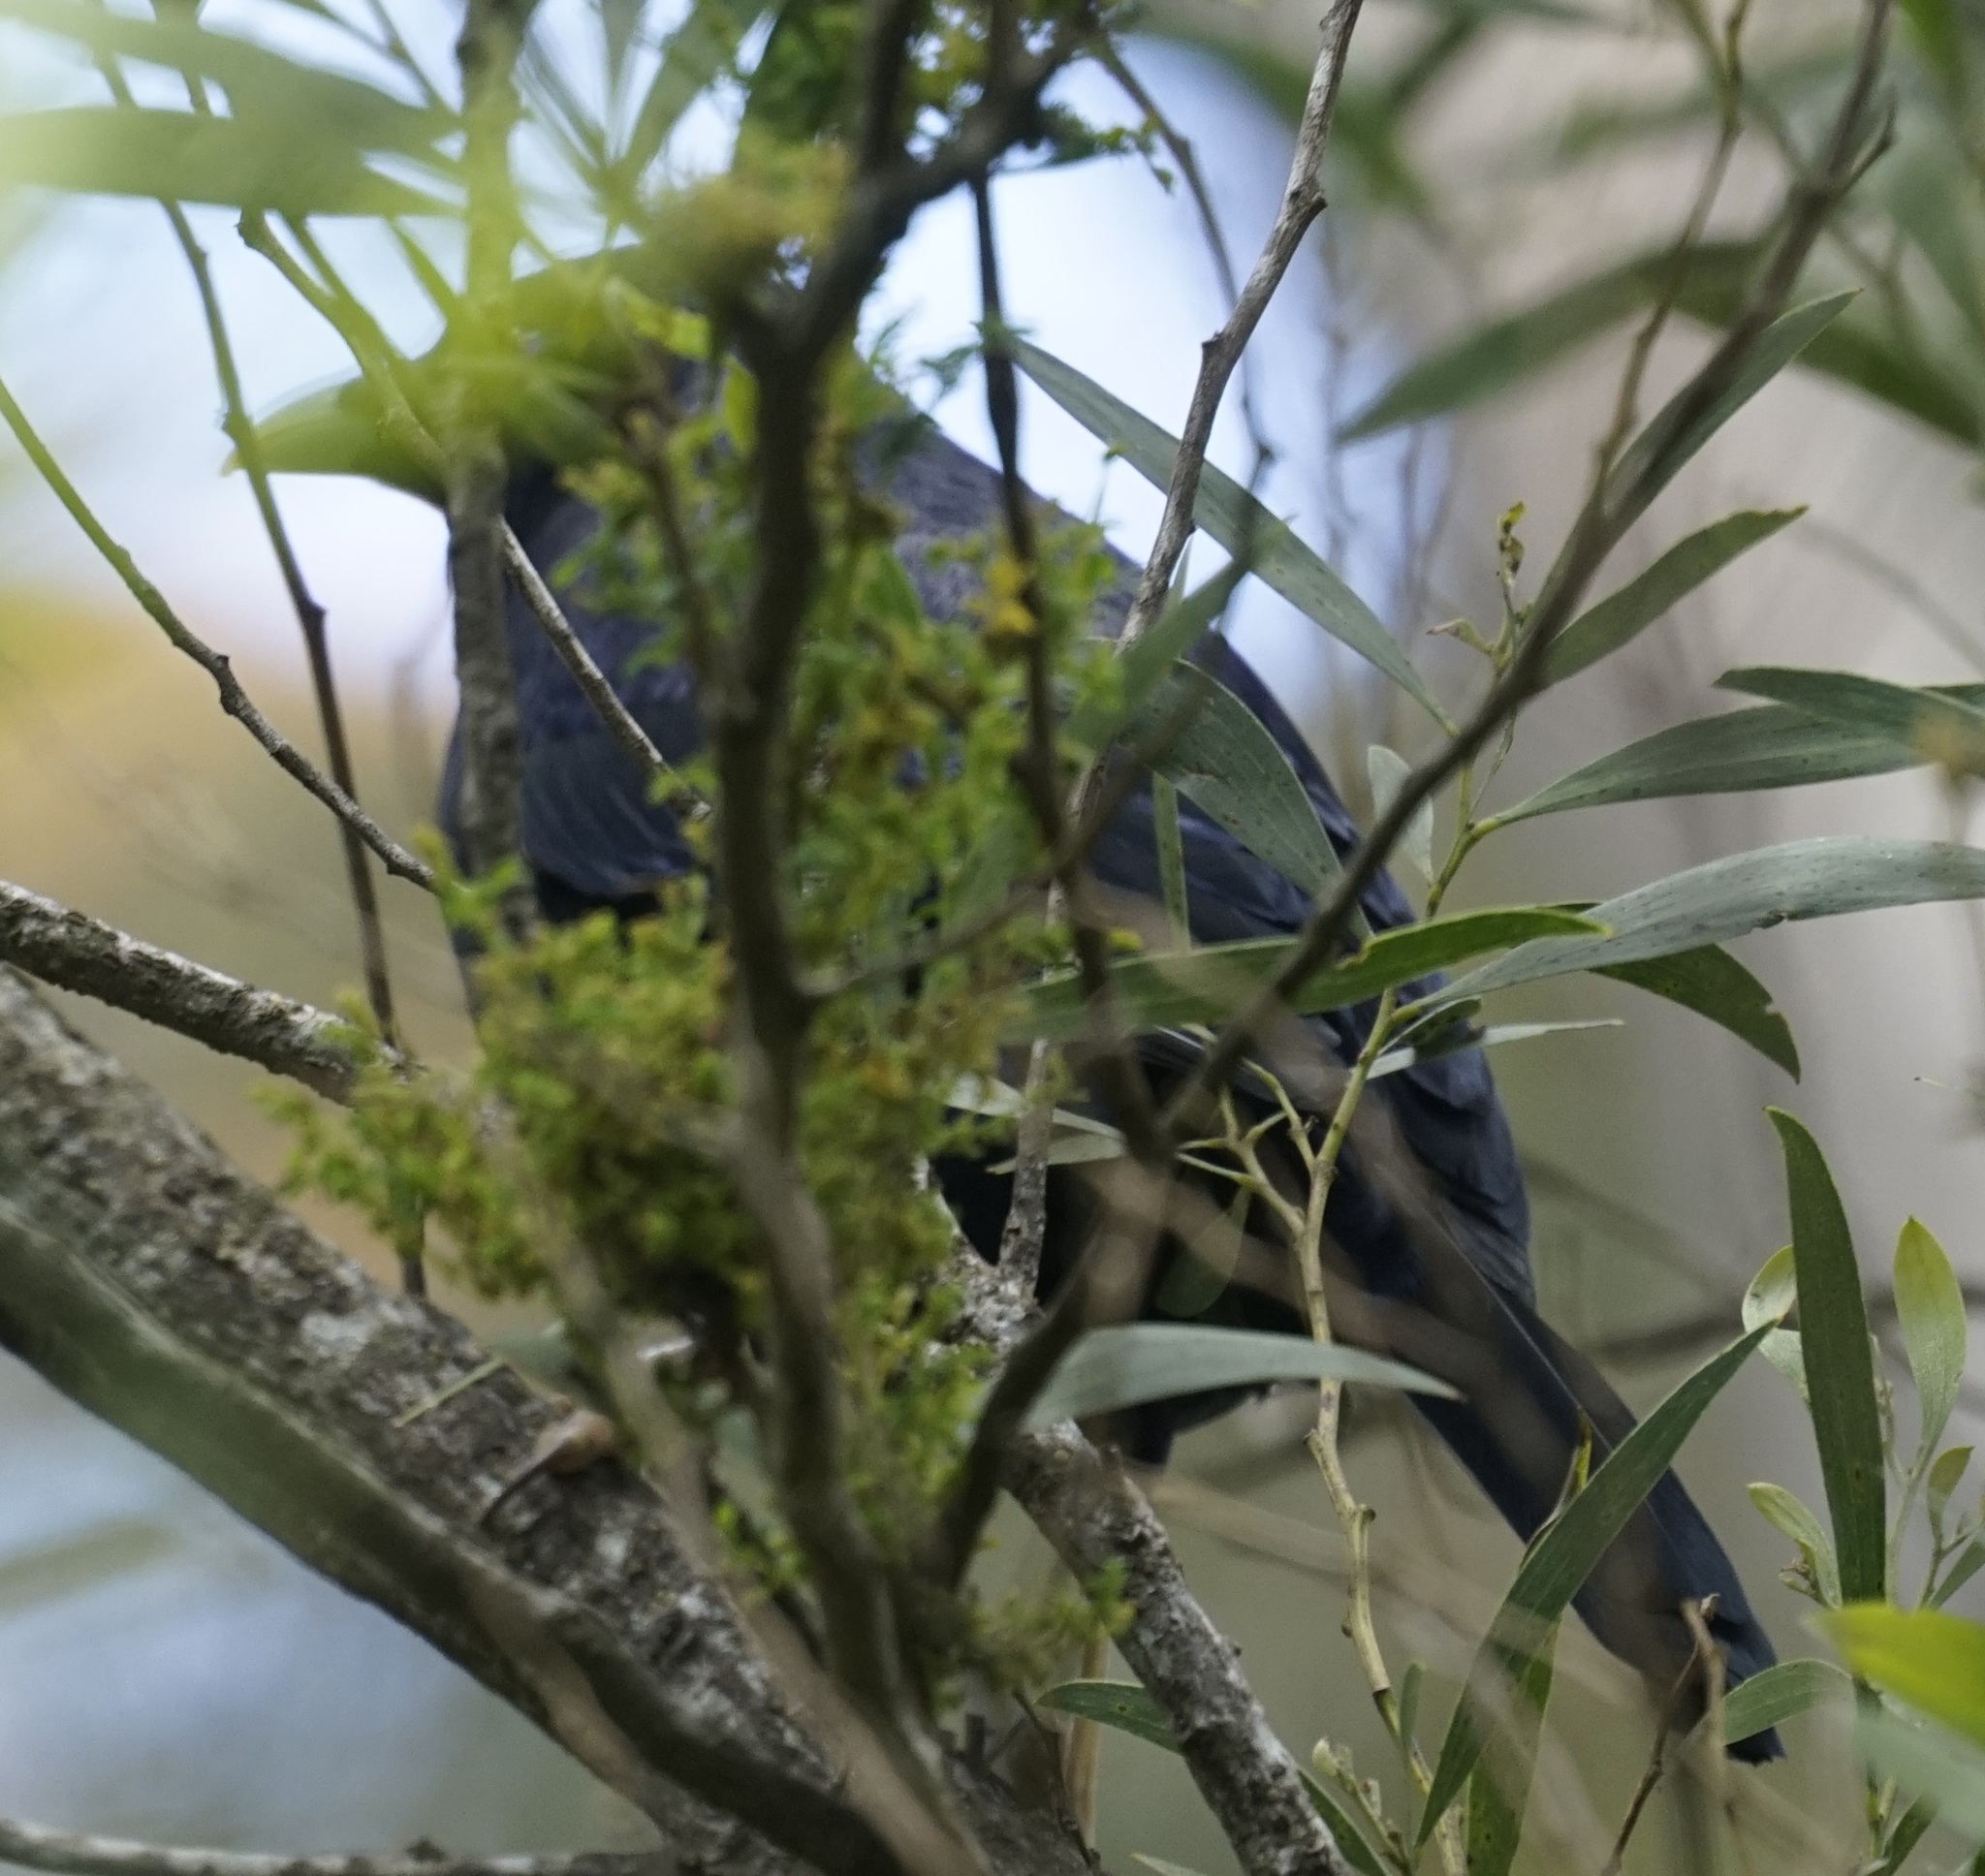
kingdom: Animalia
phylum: Chordata
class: Aves
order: Passeriformes
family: Ptilonorhynchidae
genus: Ptilonorhynchus
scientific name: Ptilonorhynchus violaceus
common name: Satin bowerbird
